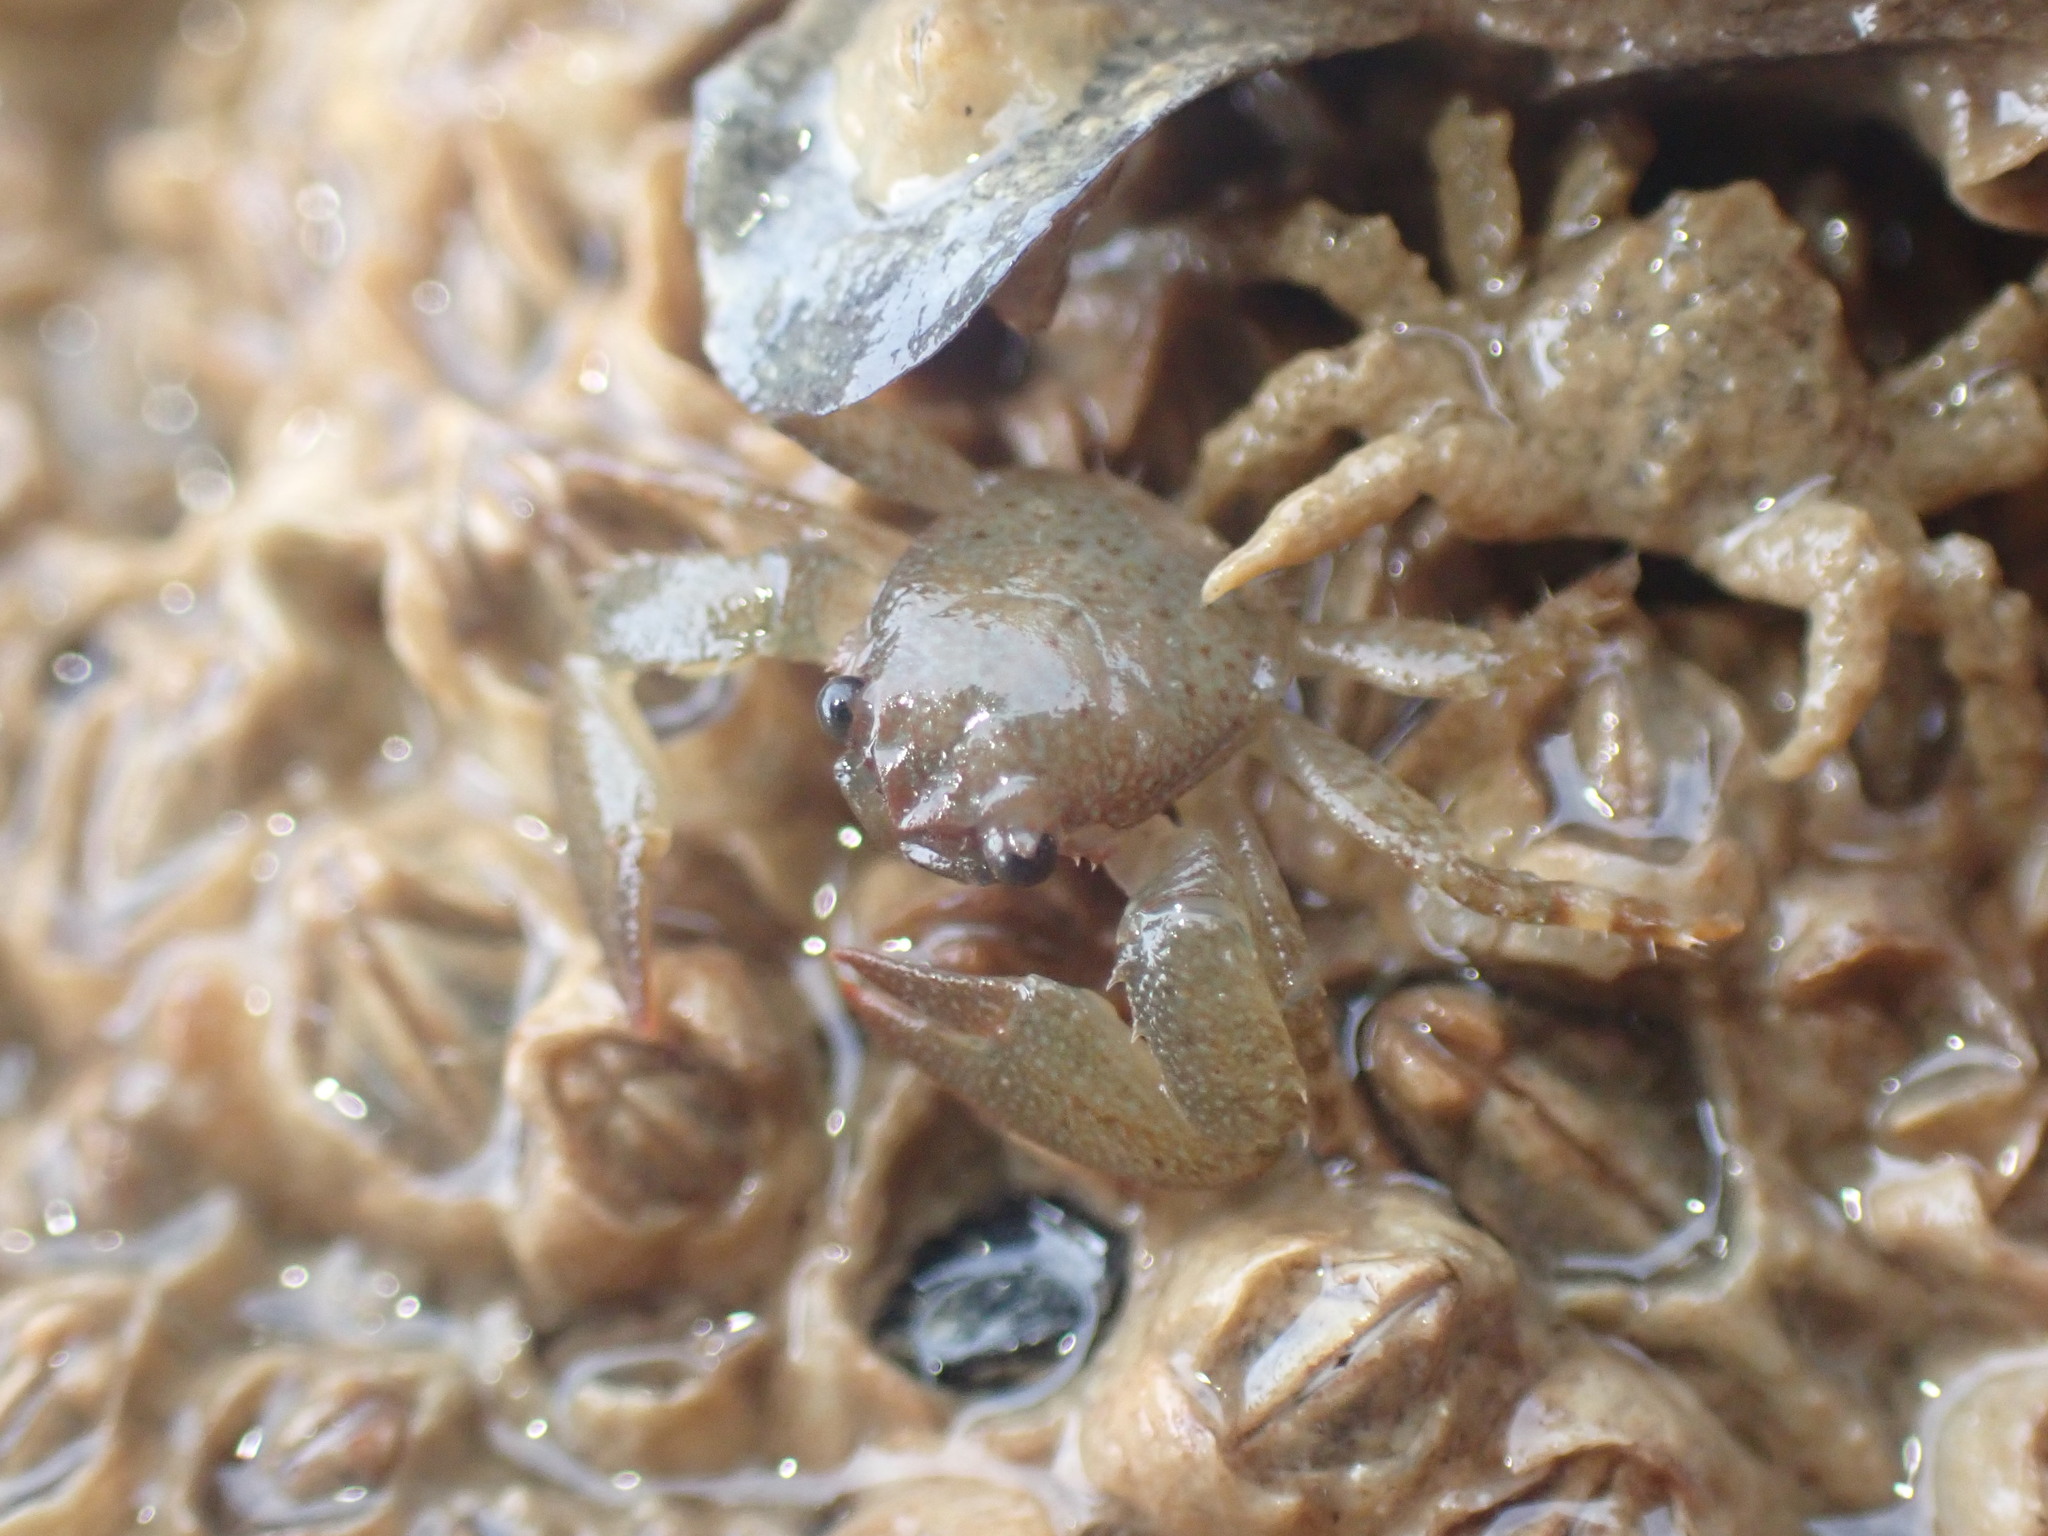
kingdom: Animalia
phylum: Arthropoda
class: Malacostraca
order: Decapoda
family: Porcellanidae
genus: Petrolisthes
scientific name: Petrolisthes elongatus
